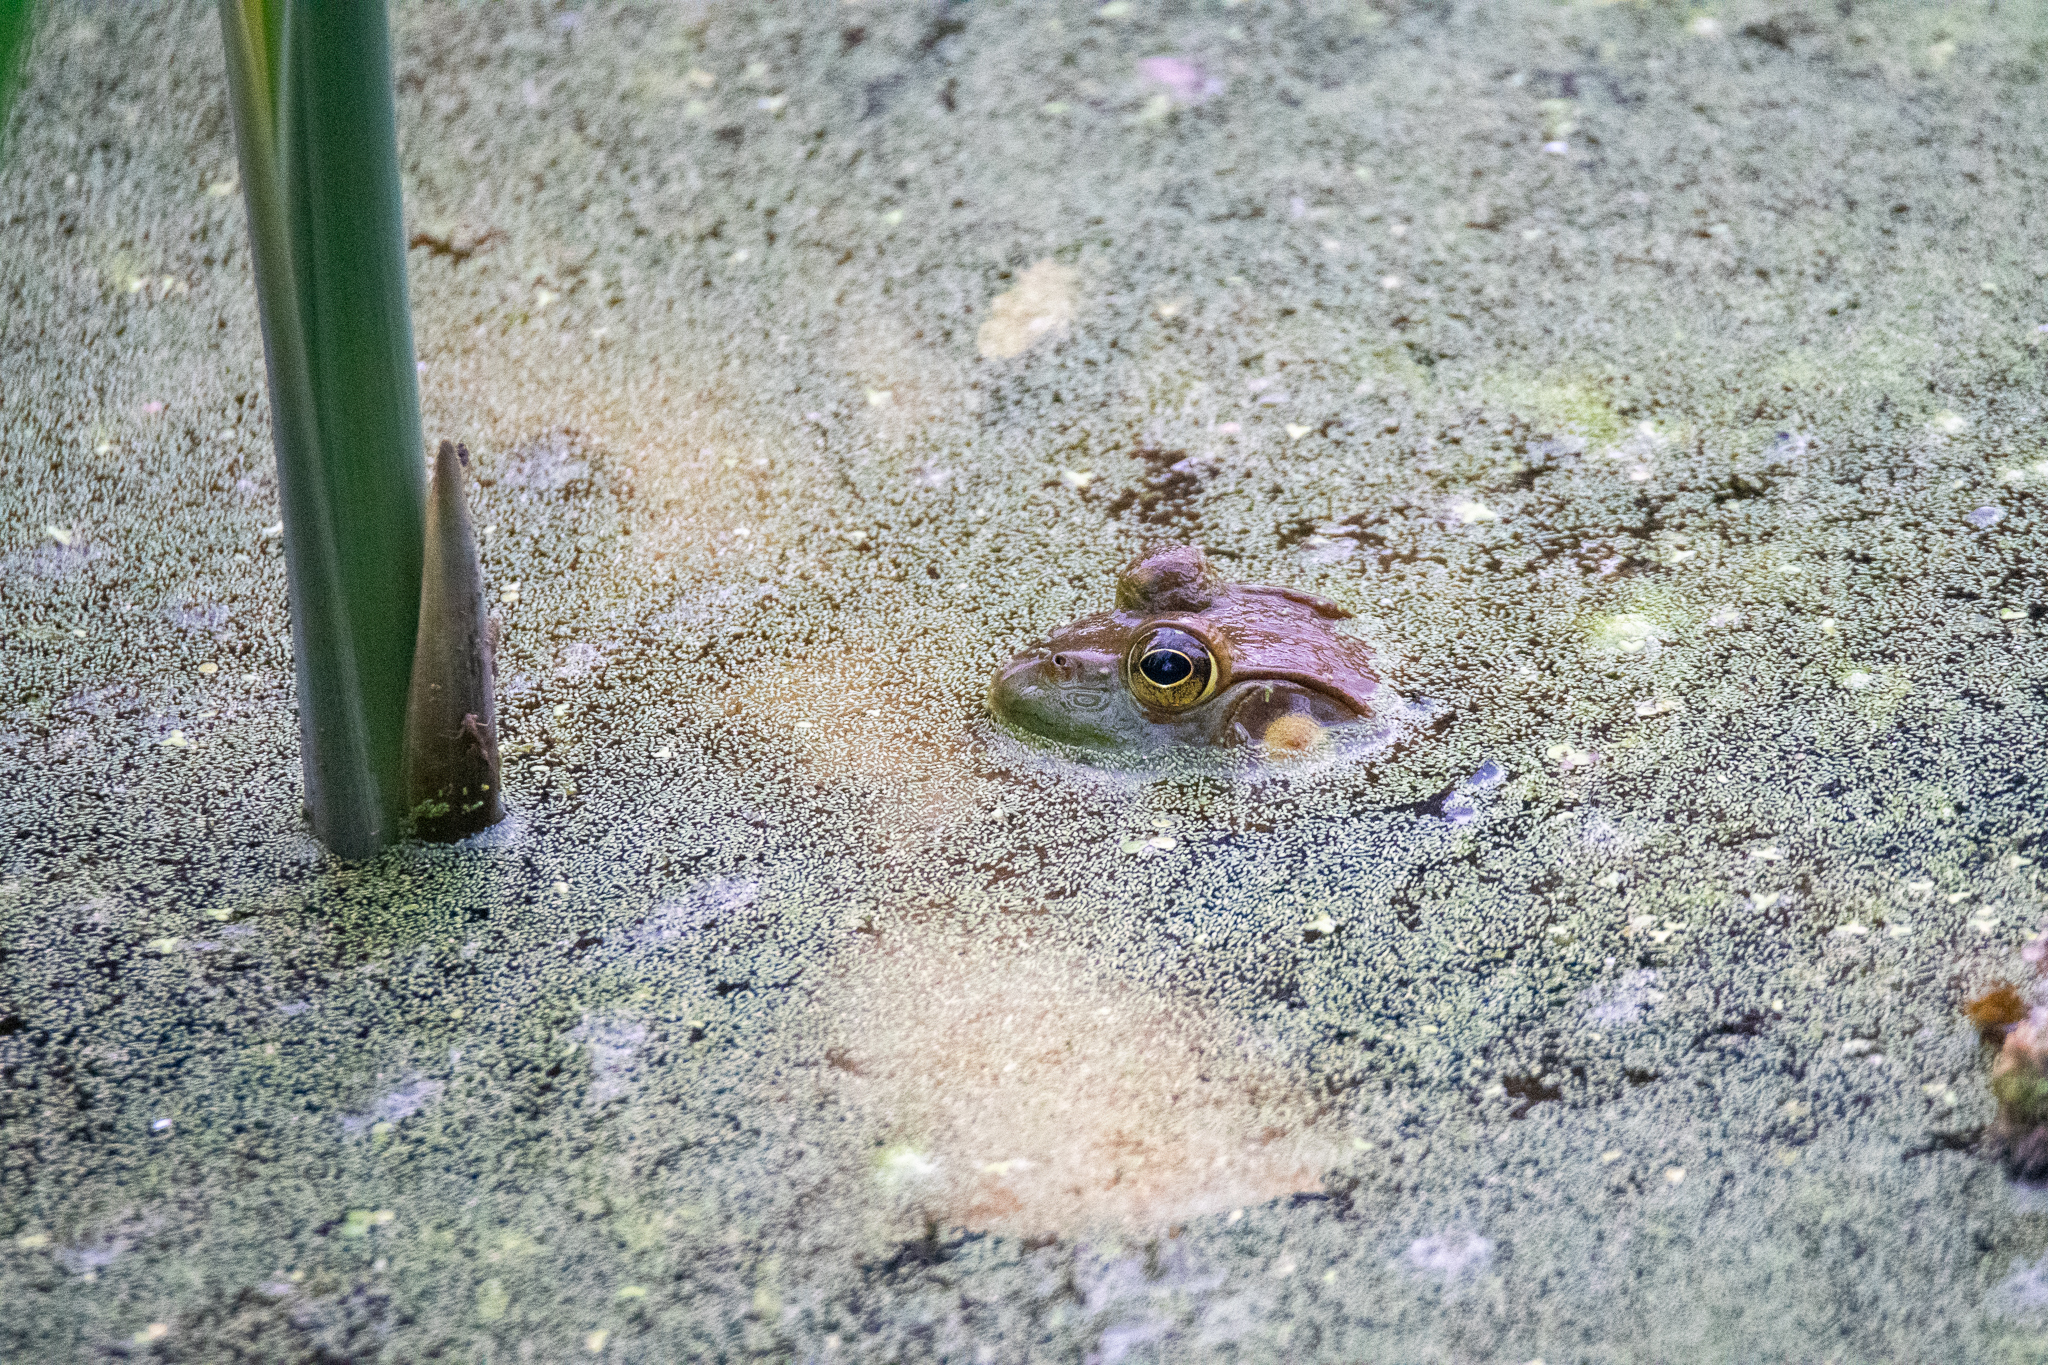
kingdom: Animalia
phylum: Chordata
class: Amphibia
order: Anura
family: Ranidae
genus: Lithobates
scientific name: Lithobates catesbeianus
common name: American bullfrog
